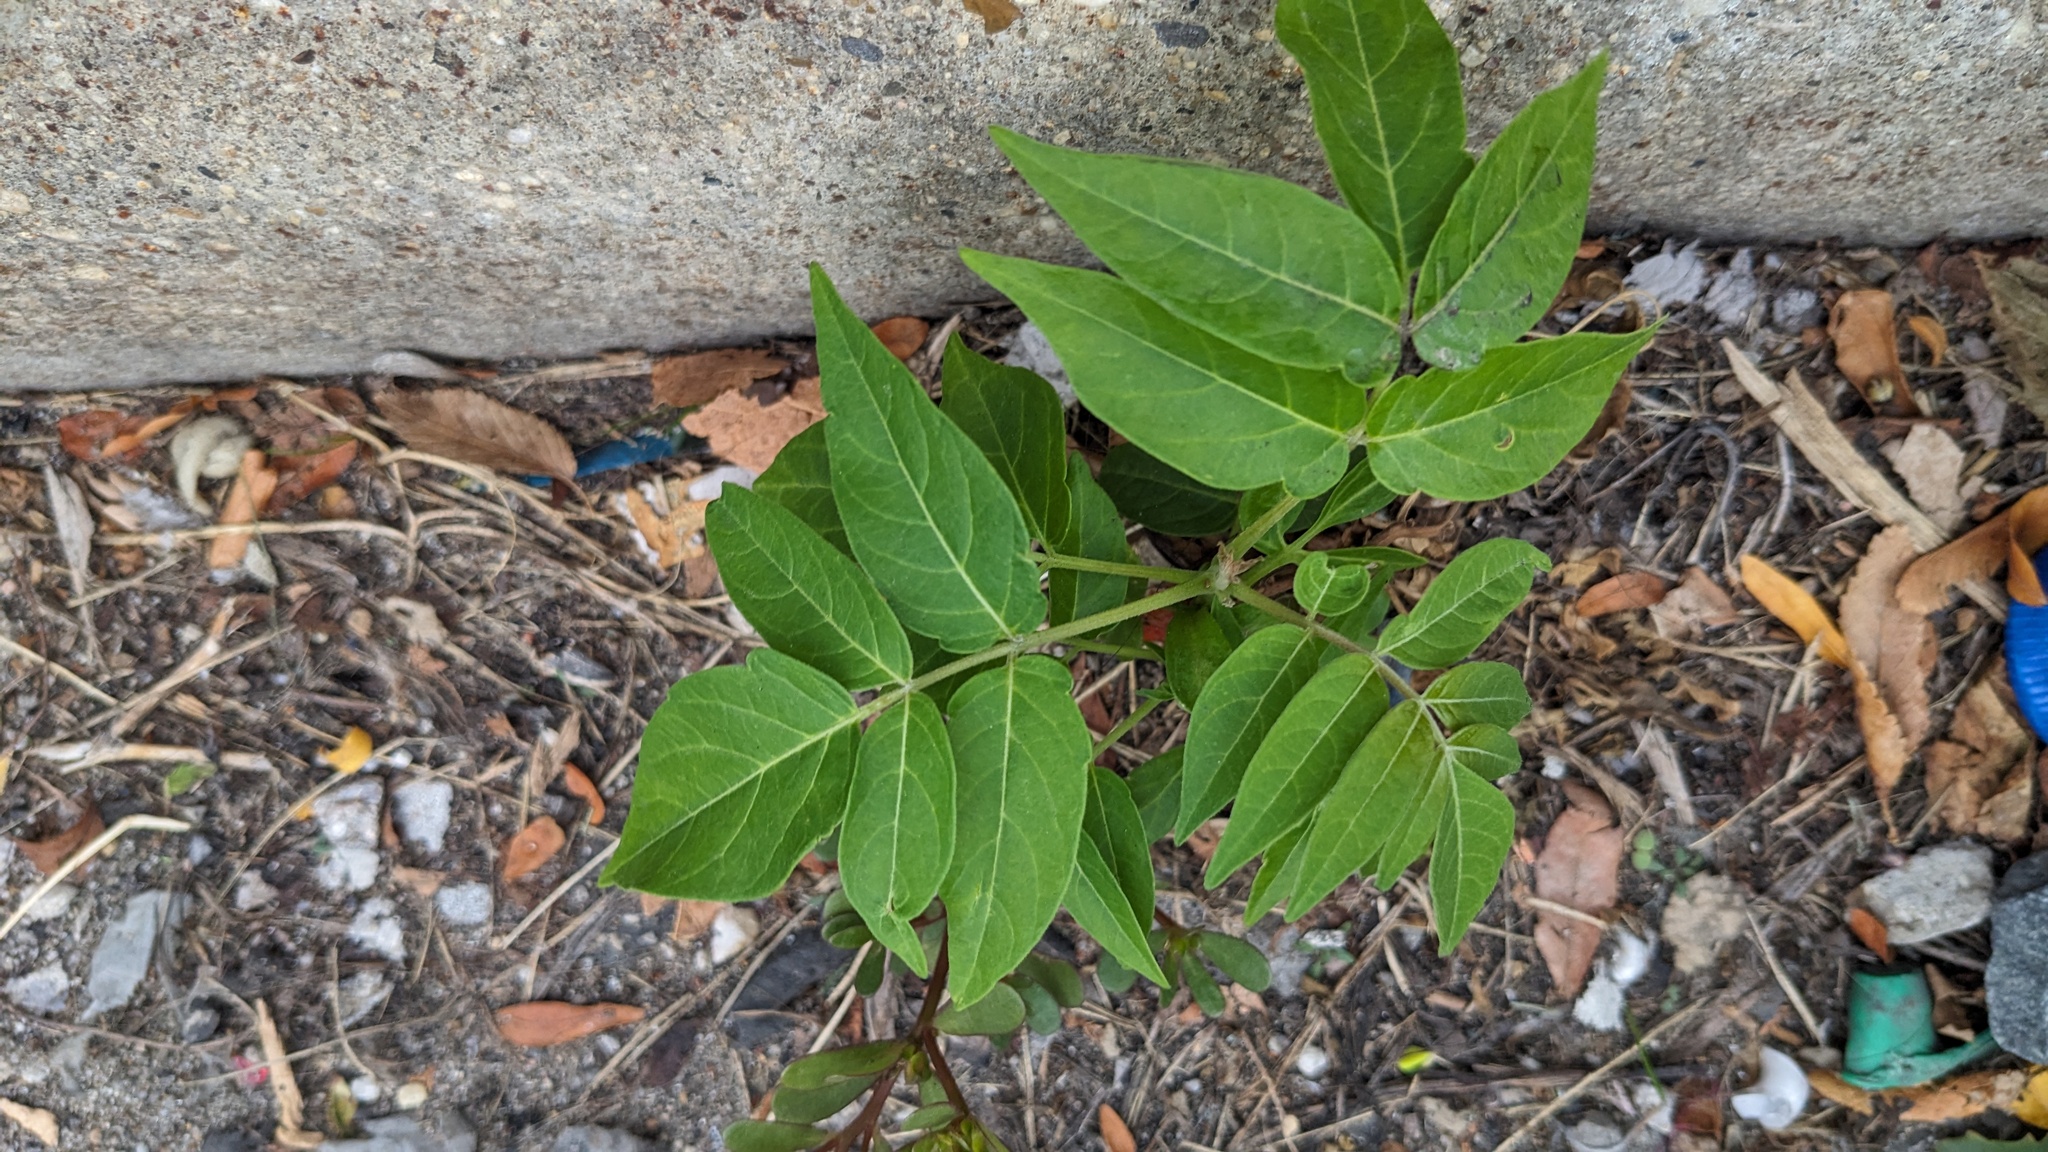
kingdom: Plantae
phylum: Tracheophyta
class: Magnoliopsida
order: Sapindales
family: Simaroubaceae
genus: Ailanthus
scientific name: Ailanthus altissima
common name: Tree-of-heaven
